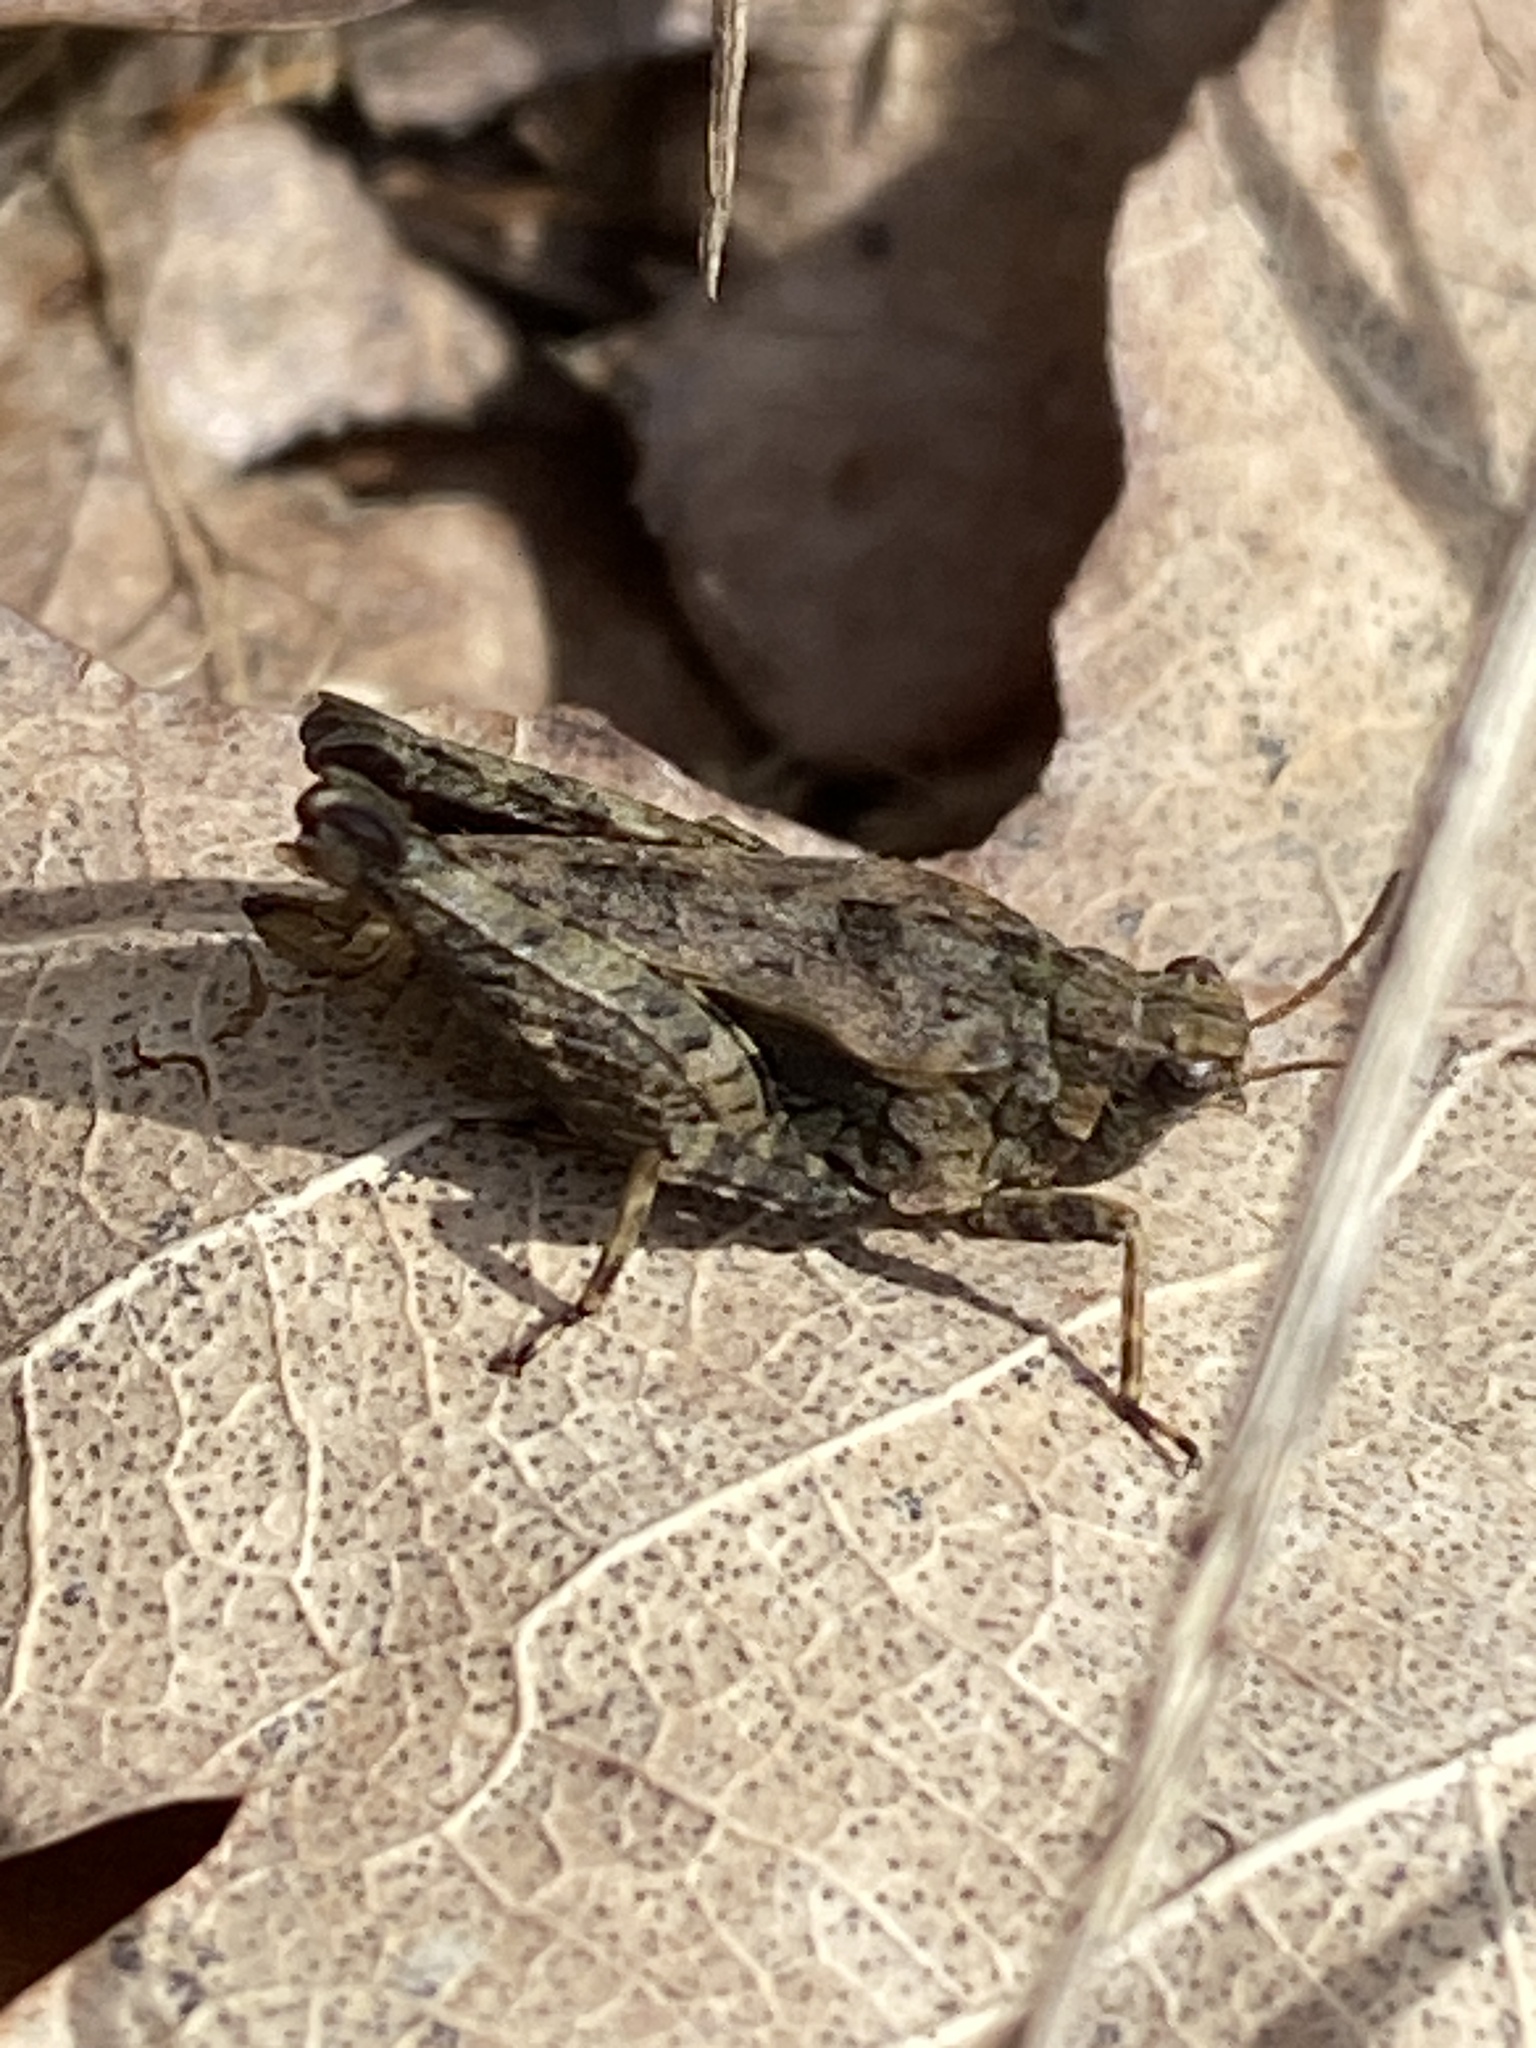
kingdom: Animalia
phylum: Arthropoda
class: Insecta
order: Orthoptera
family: Tetrigidae
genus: Tetrix
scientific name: Tetrix undulata
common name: Common groundhopper
